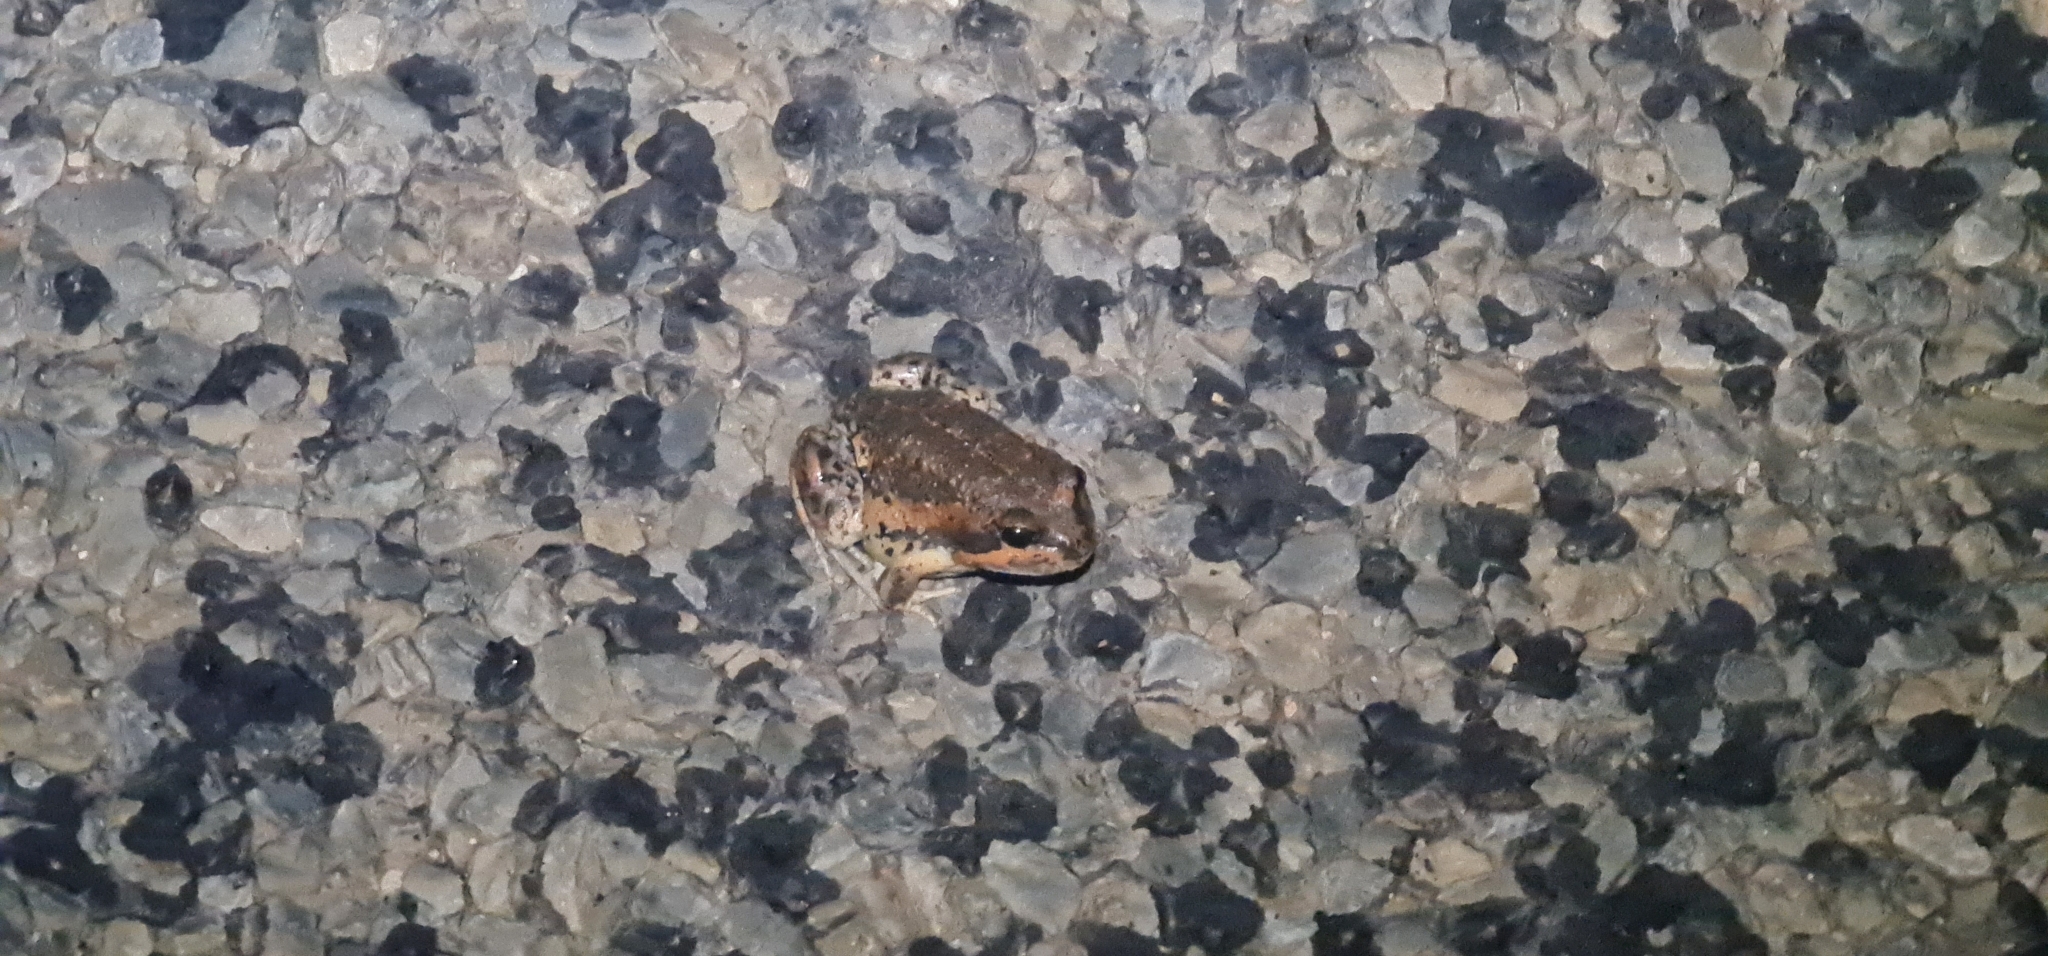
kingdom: Animalia
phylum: Chordata
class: Amphibia
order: Anura
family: Limnodynastidae
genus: Limnodynastes
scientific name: Limnodynastes dumerilii
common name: Banjo frog
